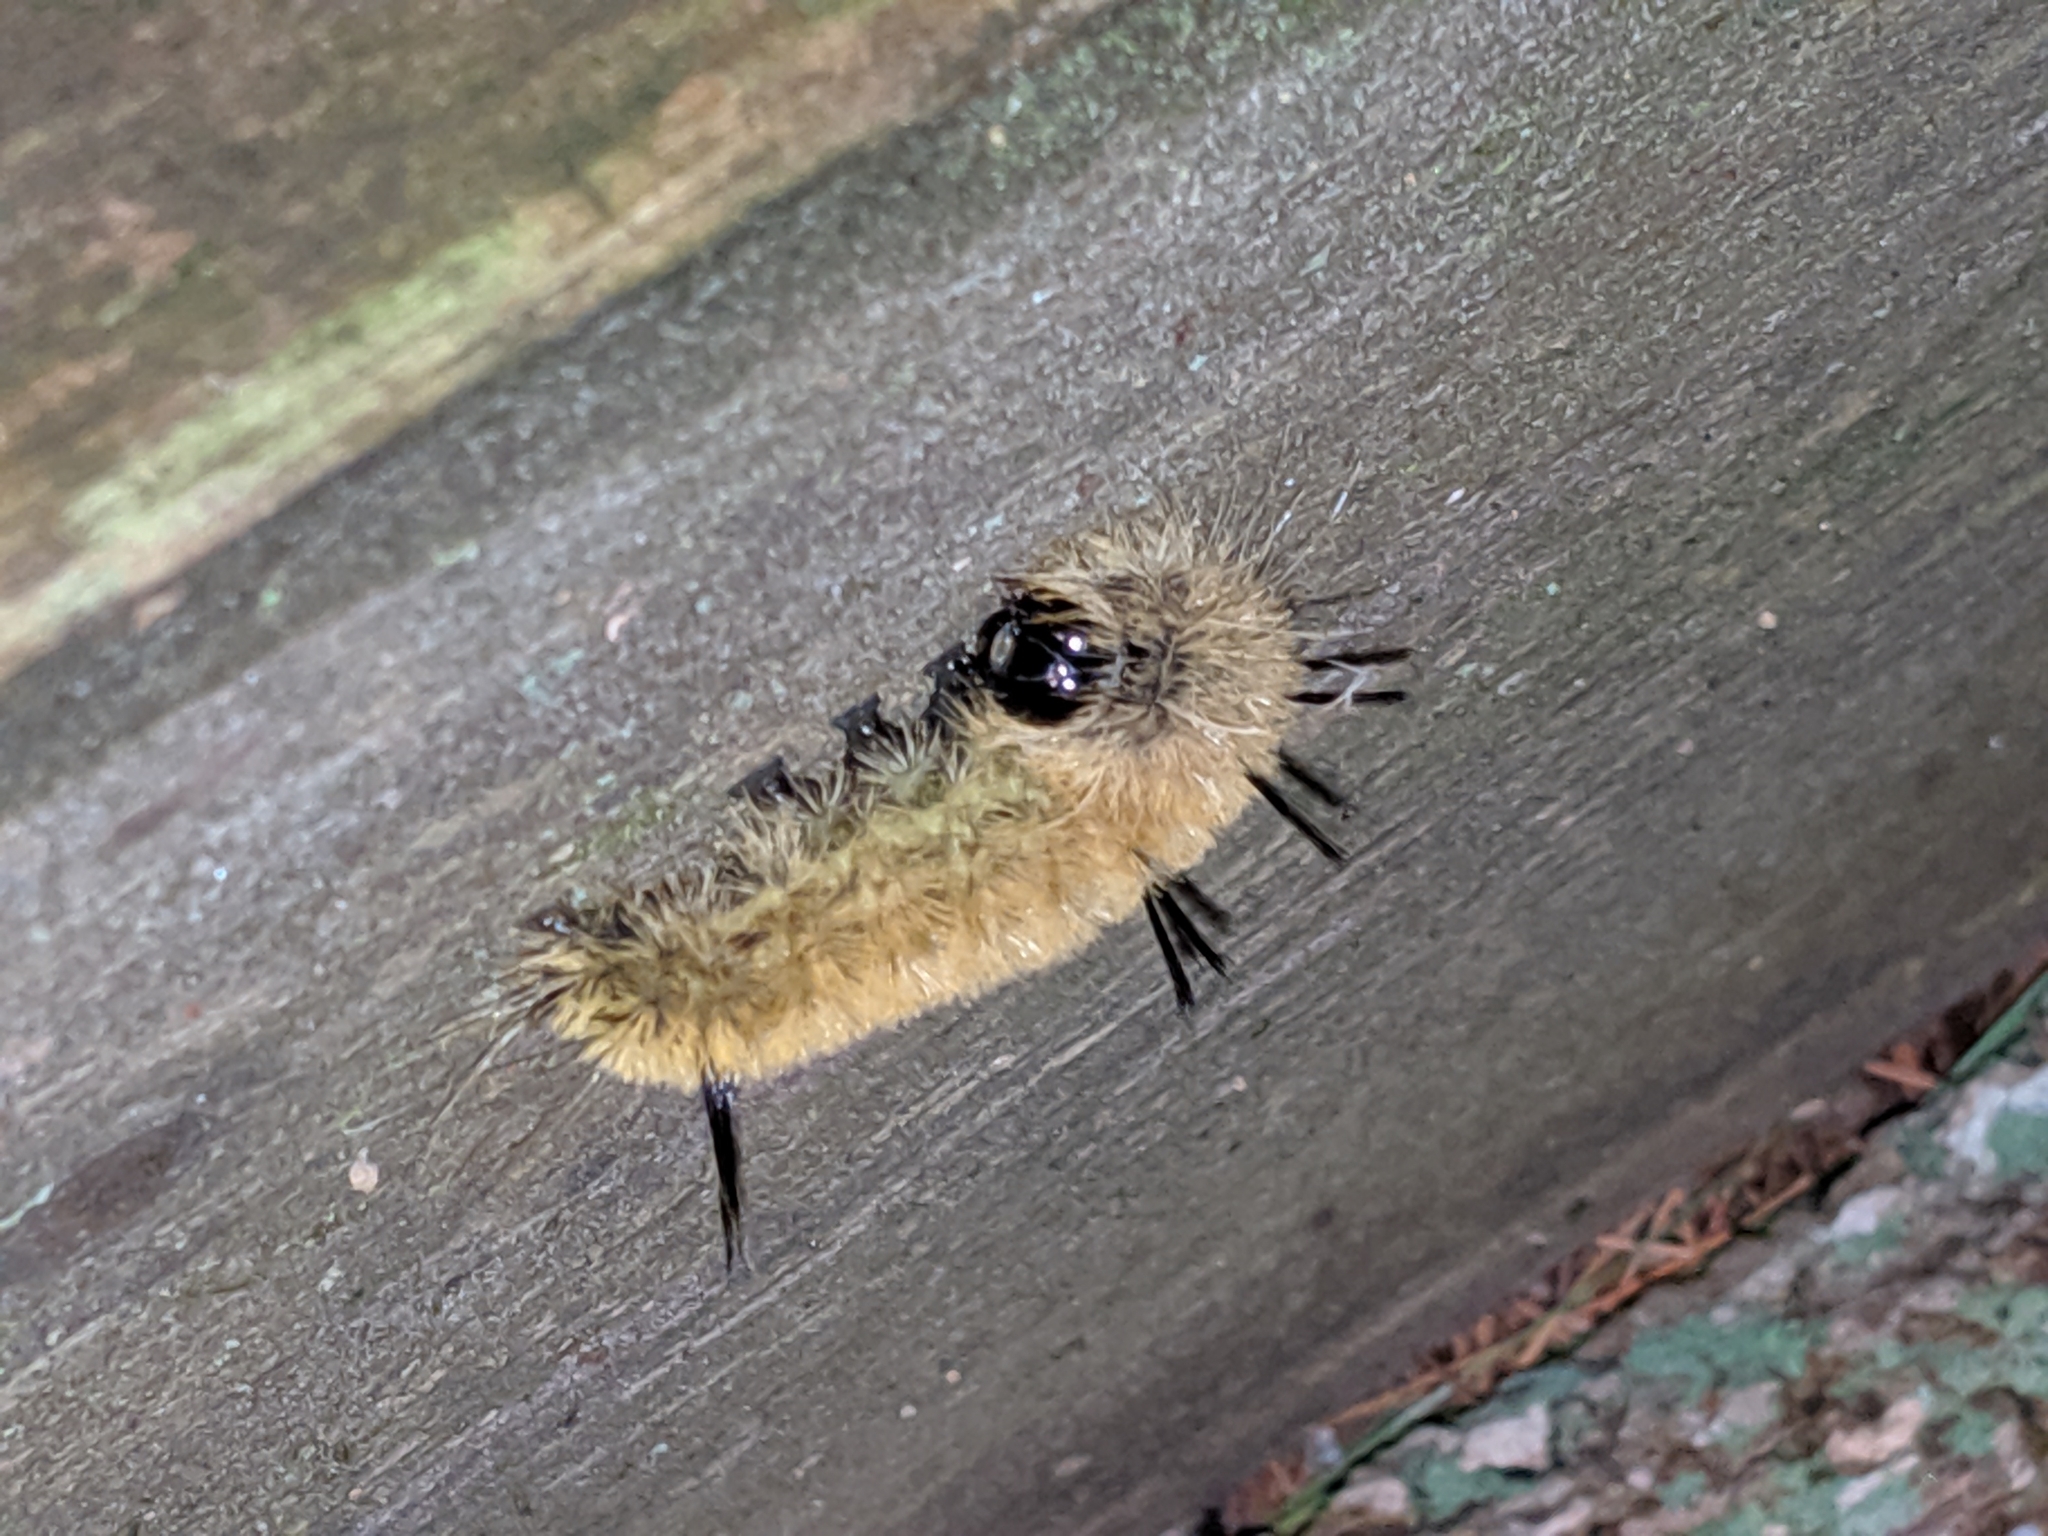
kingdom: Animalia
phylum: Arthropoda
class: Insecta
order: Lepidoptera
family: Noctuidae
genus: Acronicta
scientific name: Acronicta americana
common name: American dagger
